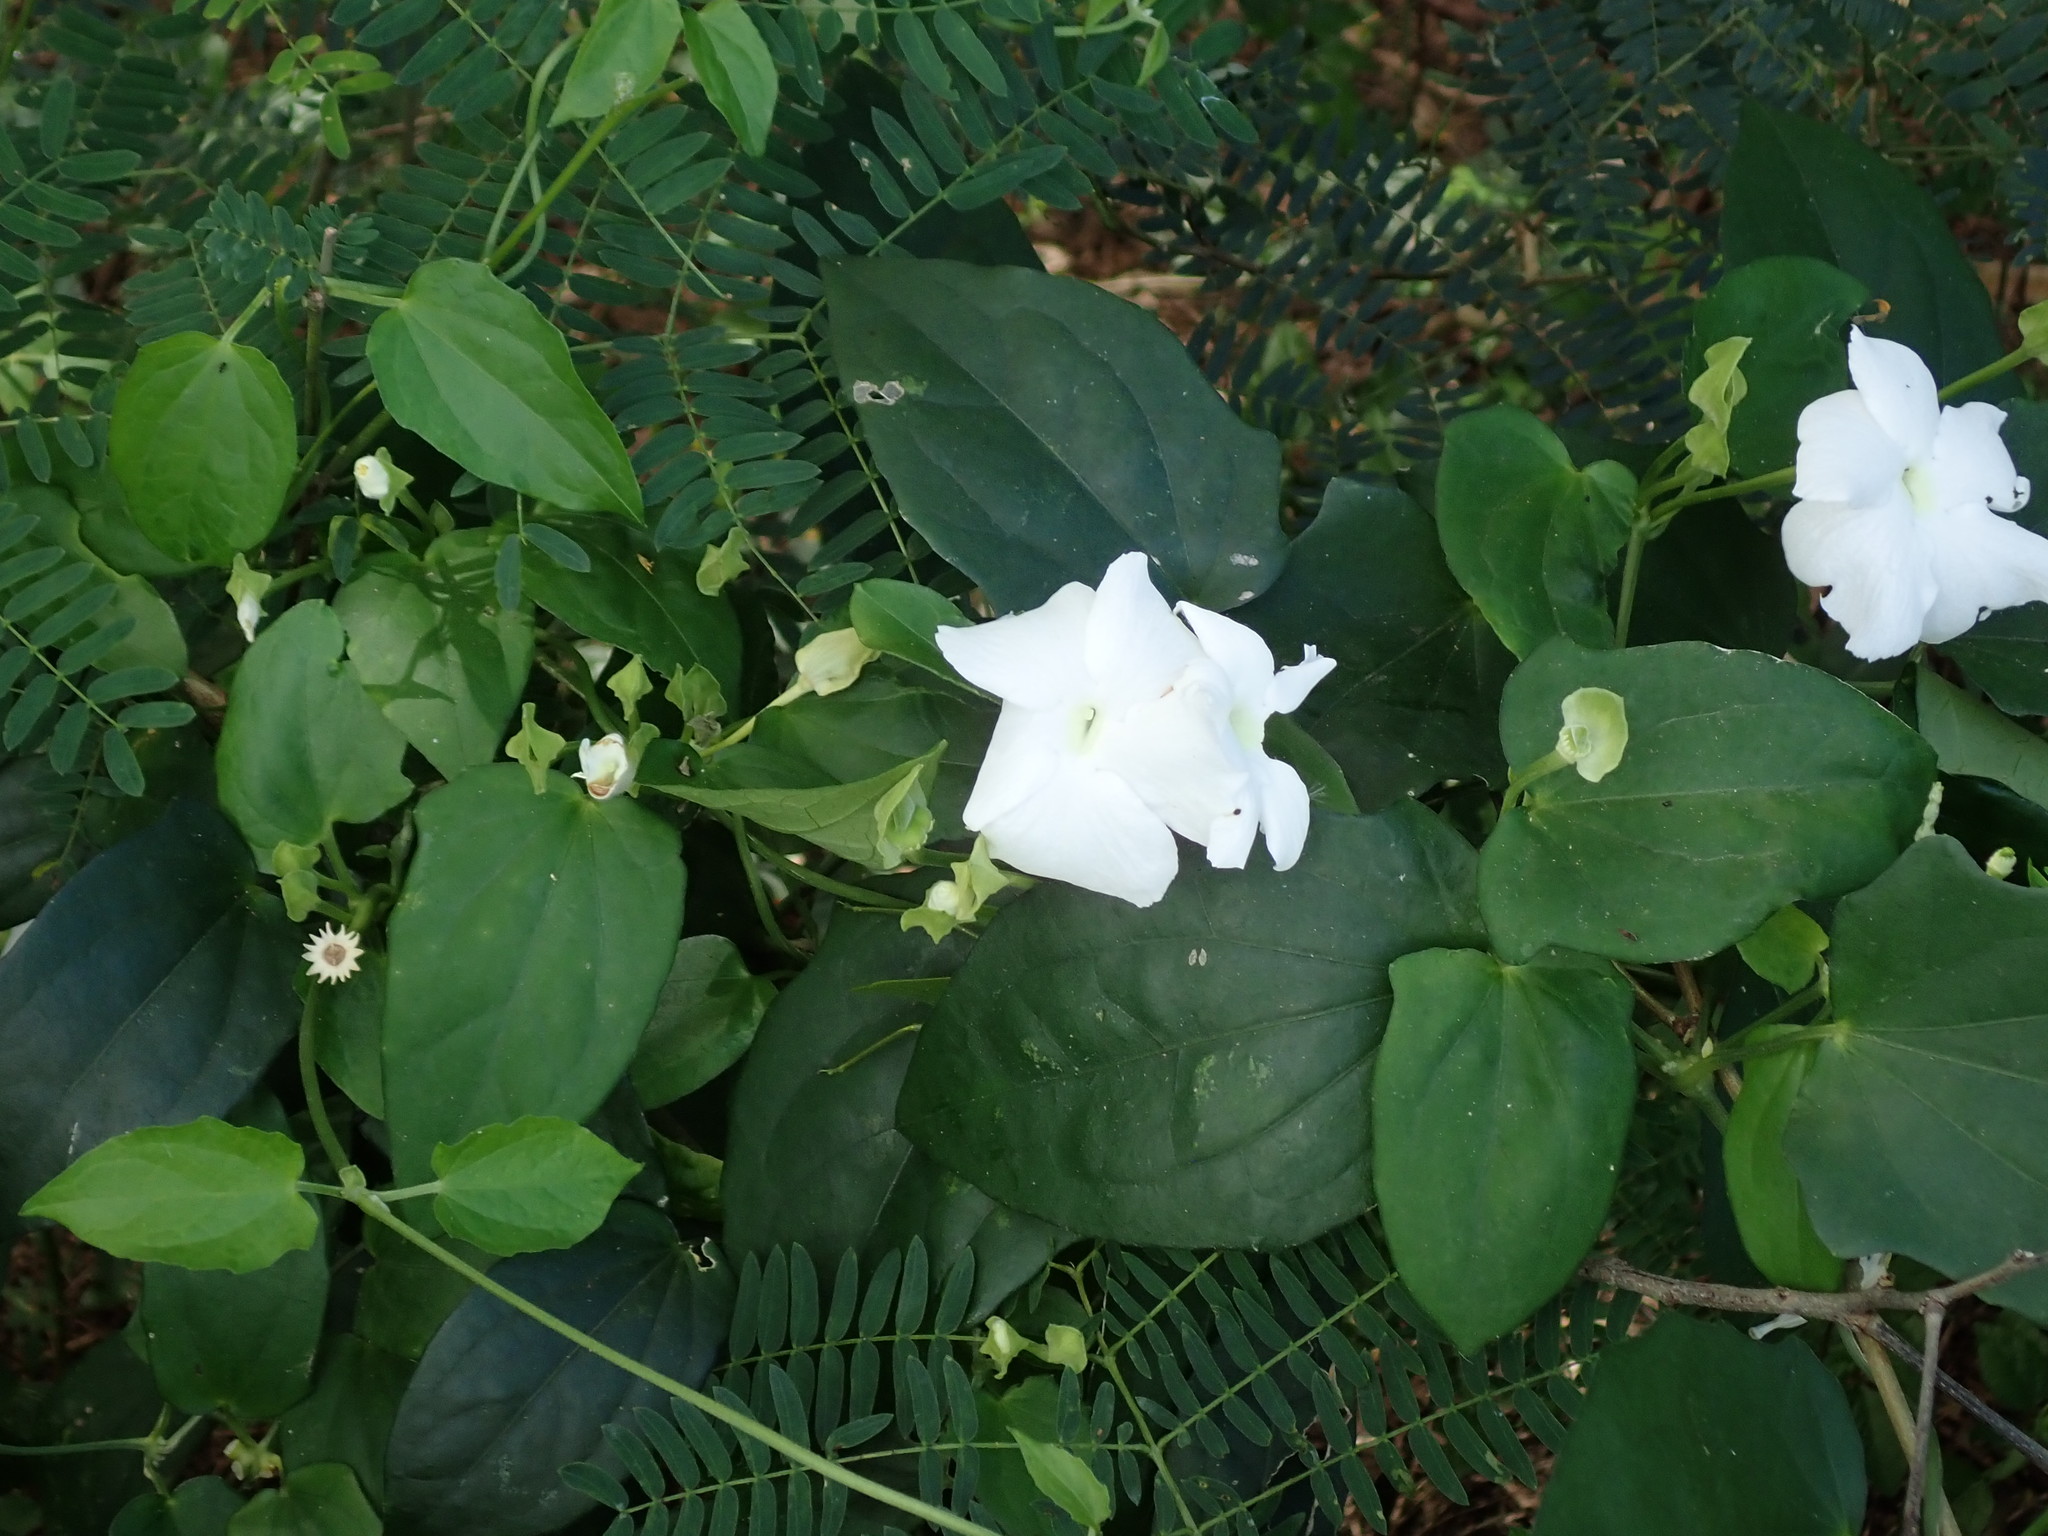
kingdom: Plantae
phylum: Tracheophyta
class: Magnoliopsida
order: Lamiales
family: Acanthaceae
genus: Thunbergia
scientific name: Thunbergia fragrans
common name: Whitelady
